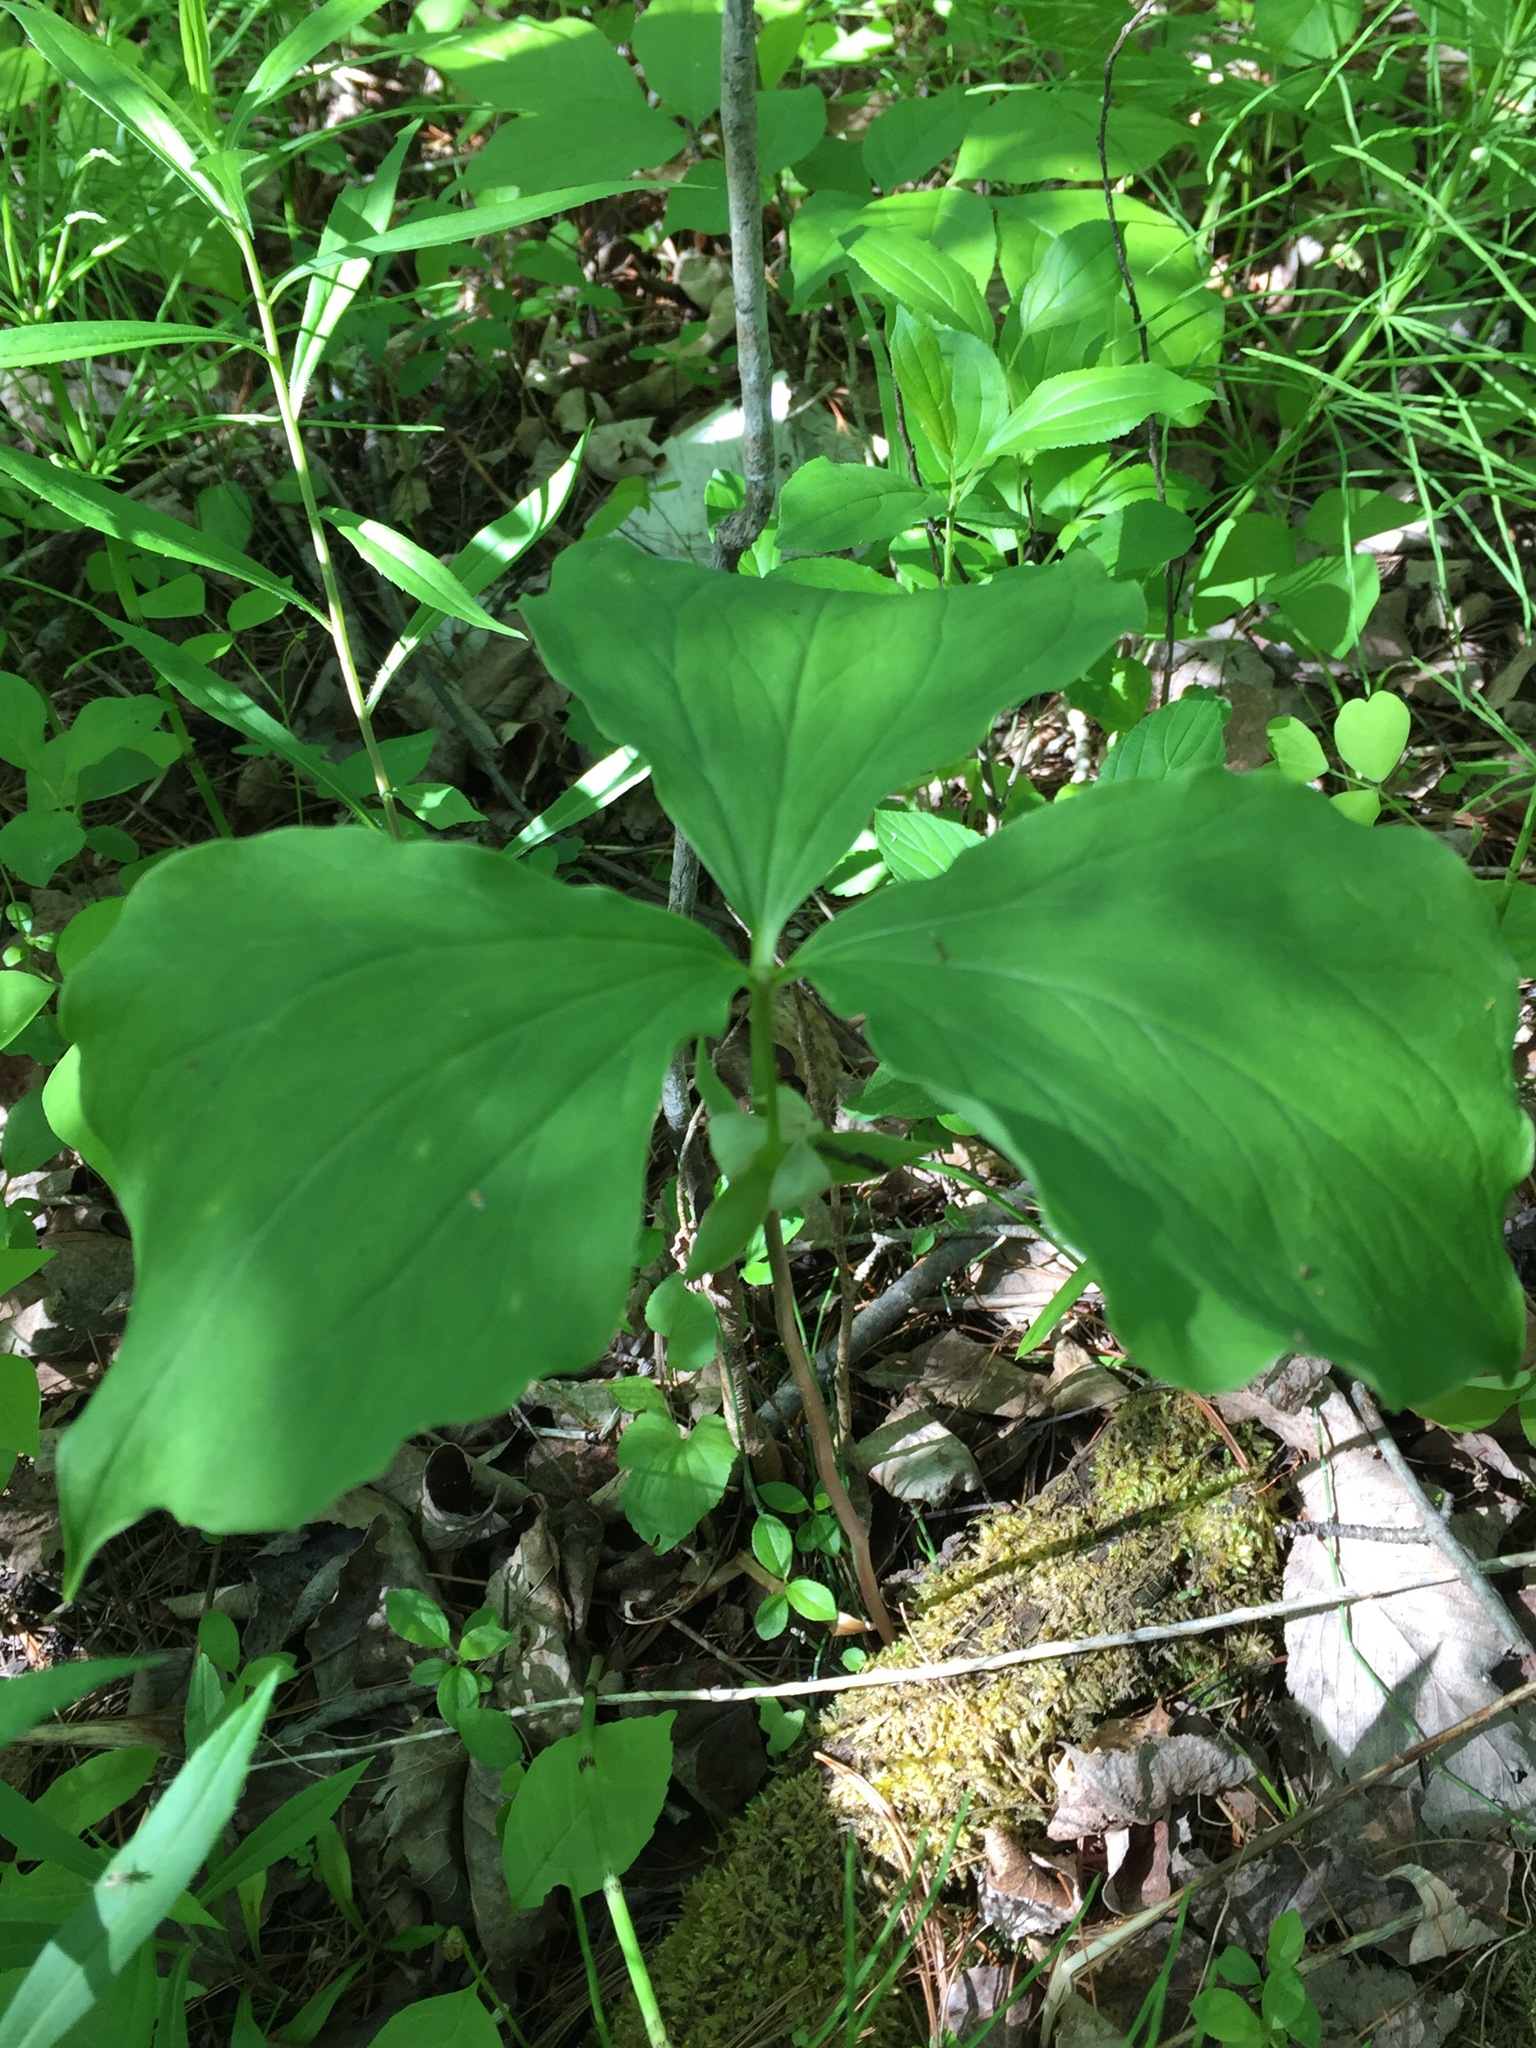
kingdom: Plantae
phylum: Tracheophyta
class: Liliopsida
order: Liliales
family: Melanthiaceae
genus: Trillium
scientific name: Trillium cernuum
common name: Nodding trillium
